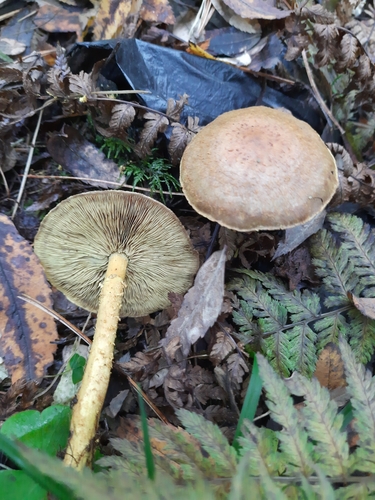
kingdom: Fungi
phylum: Basidiomycota
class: Agaricomycetes
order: Agaricales
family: Strophariaceae
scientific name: Strophariaceae
